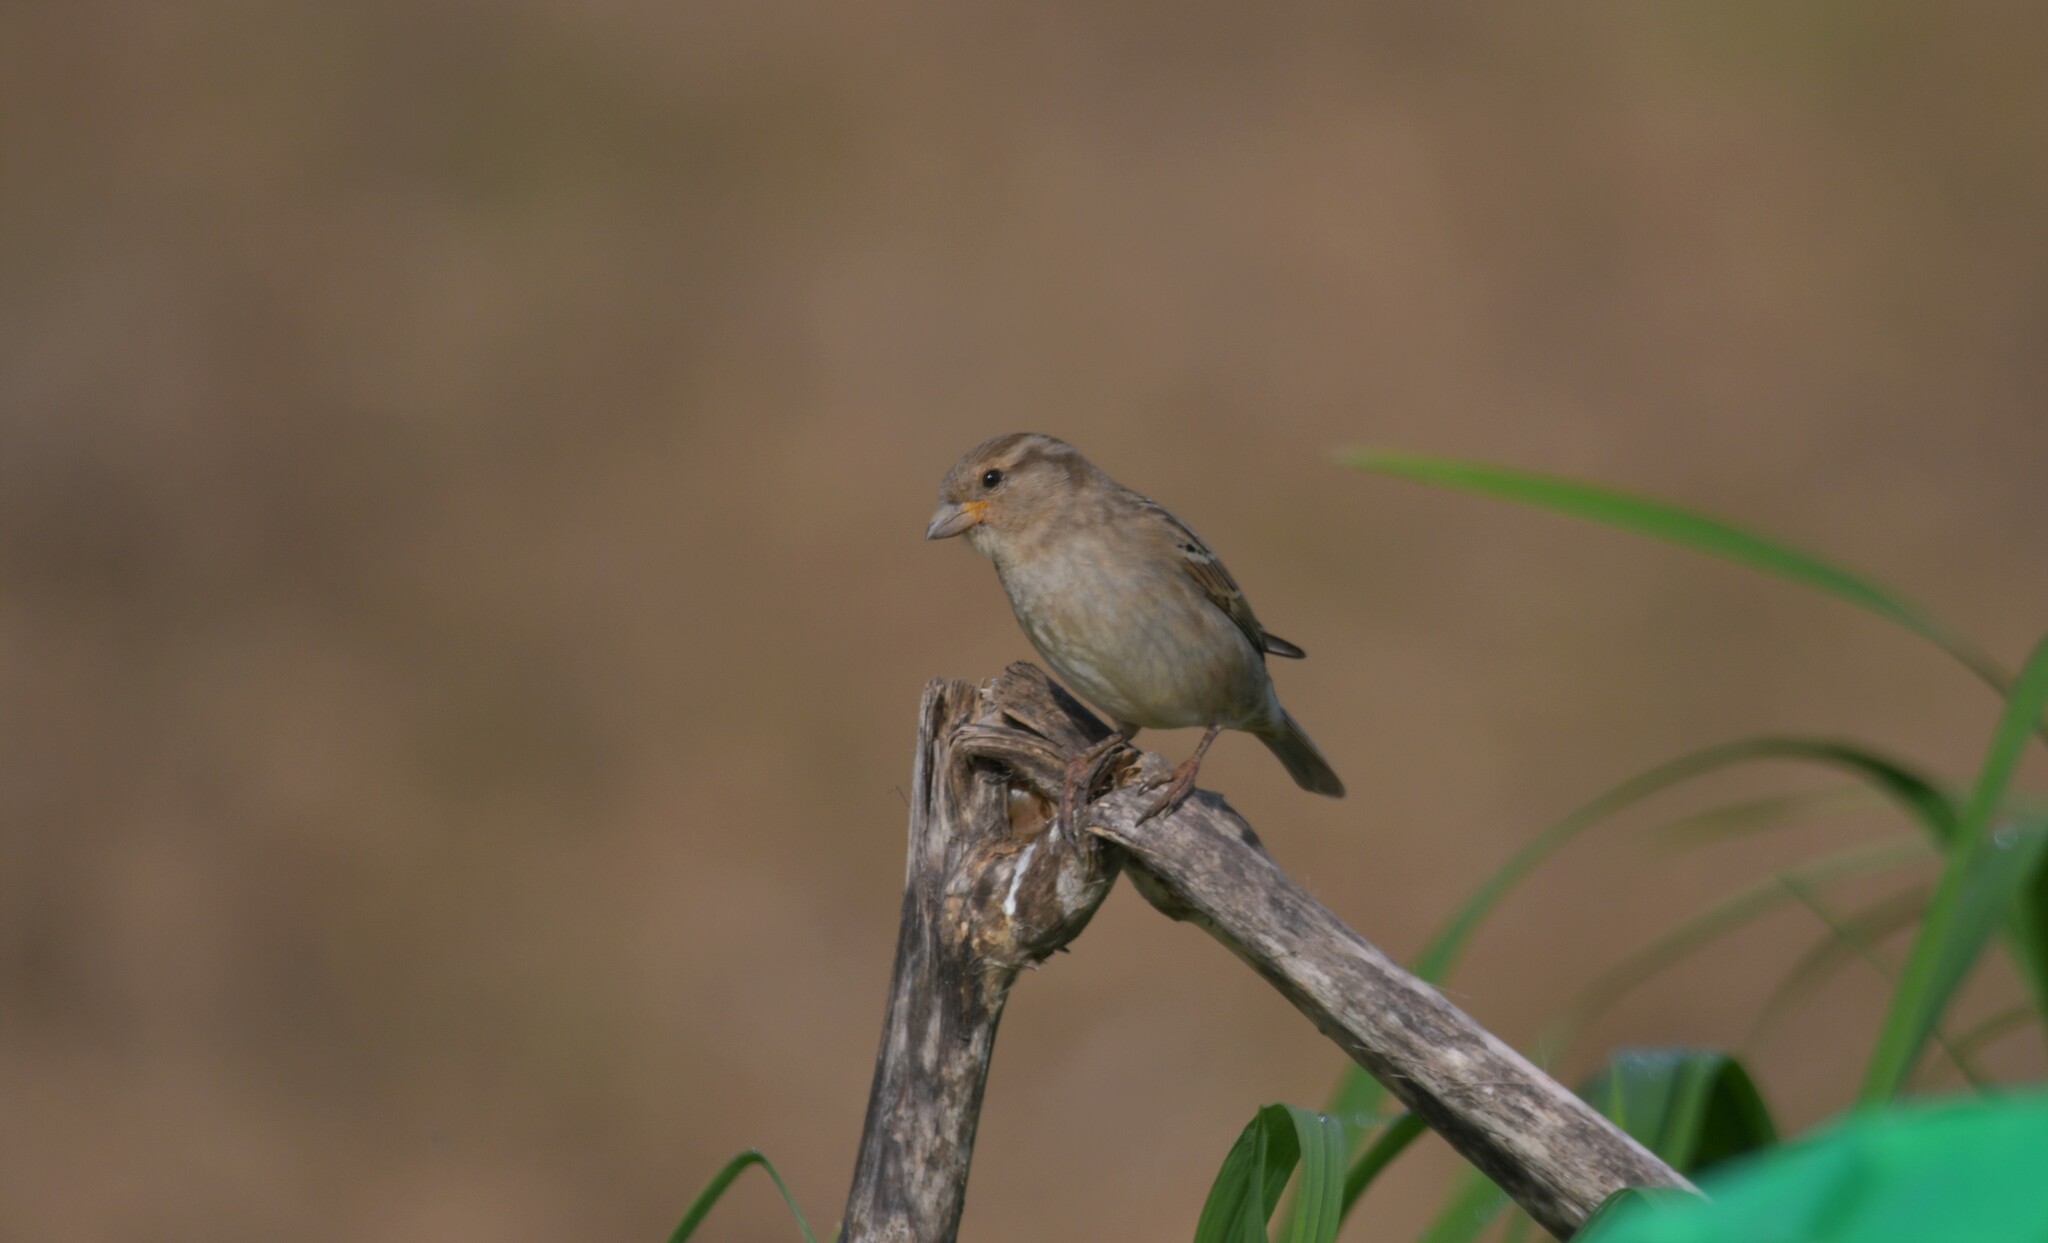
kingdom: Animalia
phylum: Chordata
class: Aves
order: Passeriformes
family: Passeridae
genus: Passer
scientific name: Passer domesticus
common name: House sparrow
